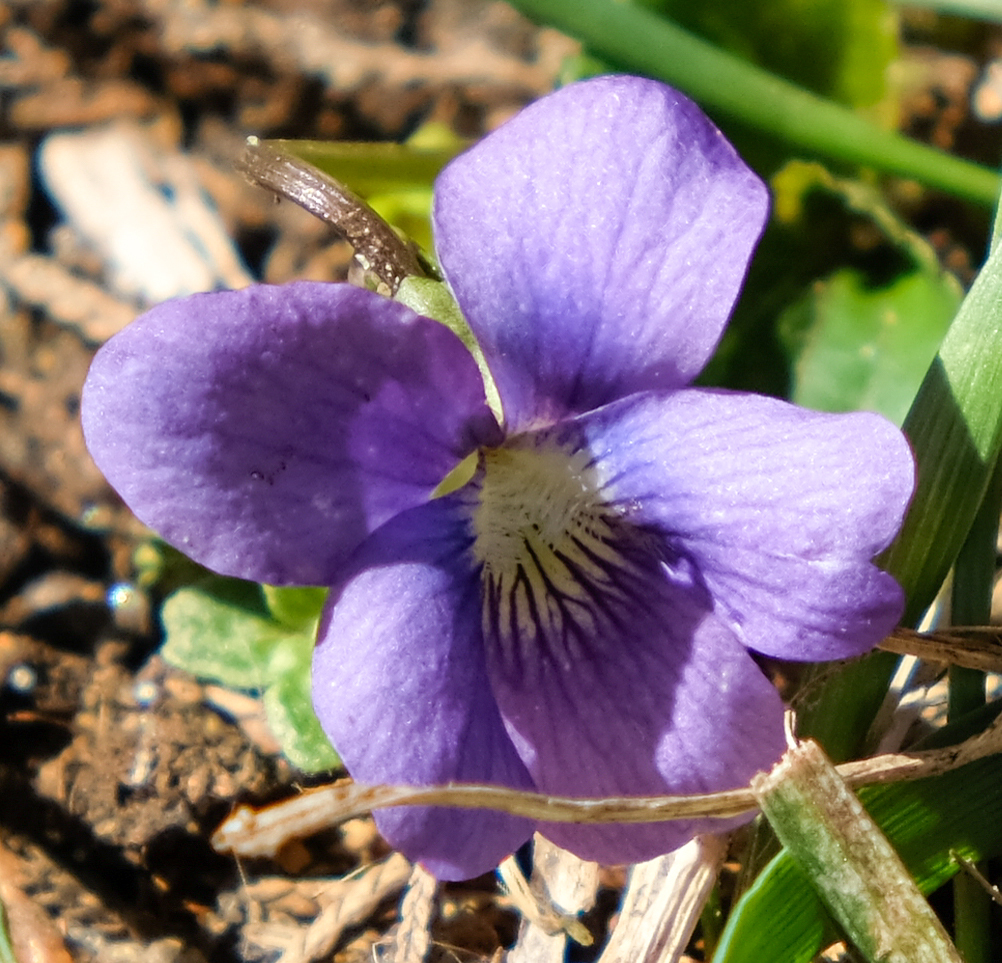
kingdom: Plantae
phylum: Tracheophyta
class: Magnoliopsida
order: Malpighiales
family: Violaceae
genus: Viola
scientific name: Viola sororia
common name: Dooryard violet
